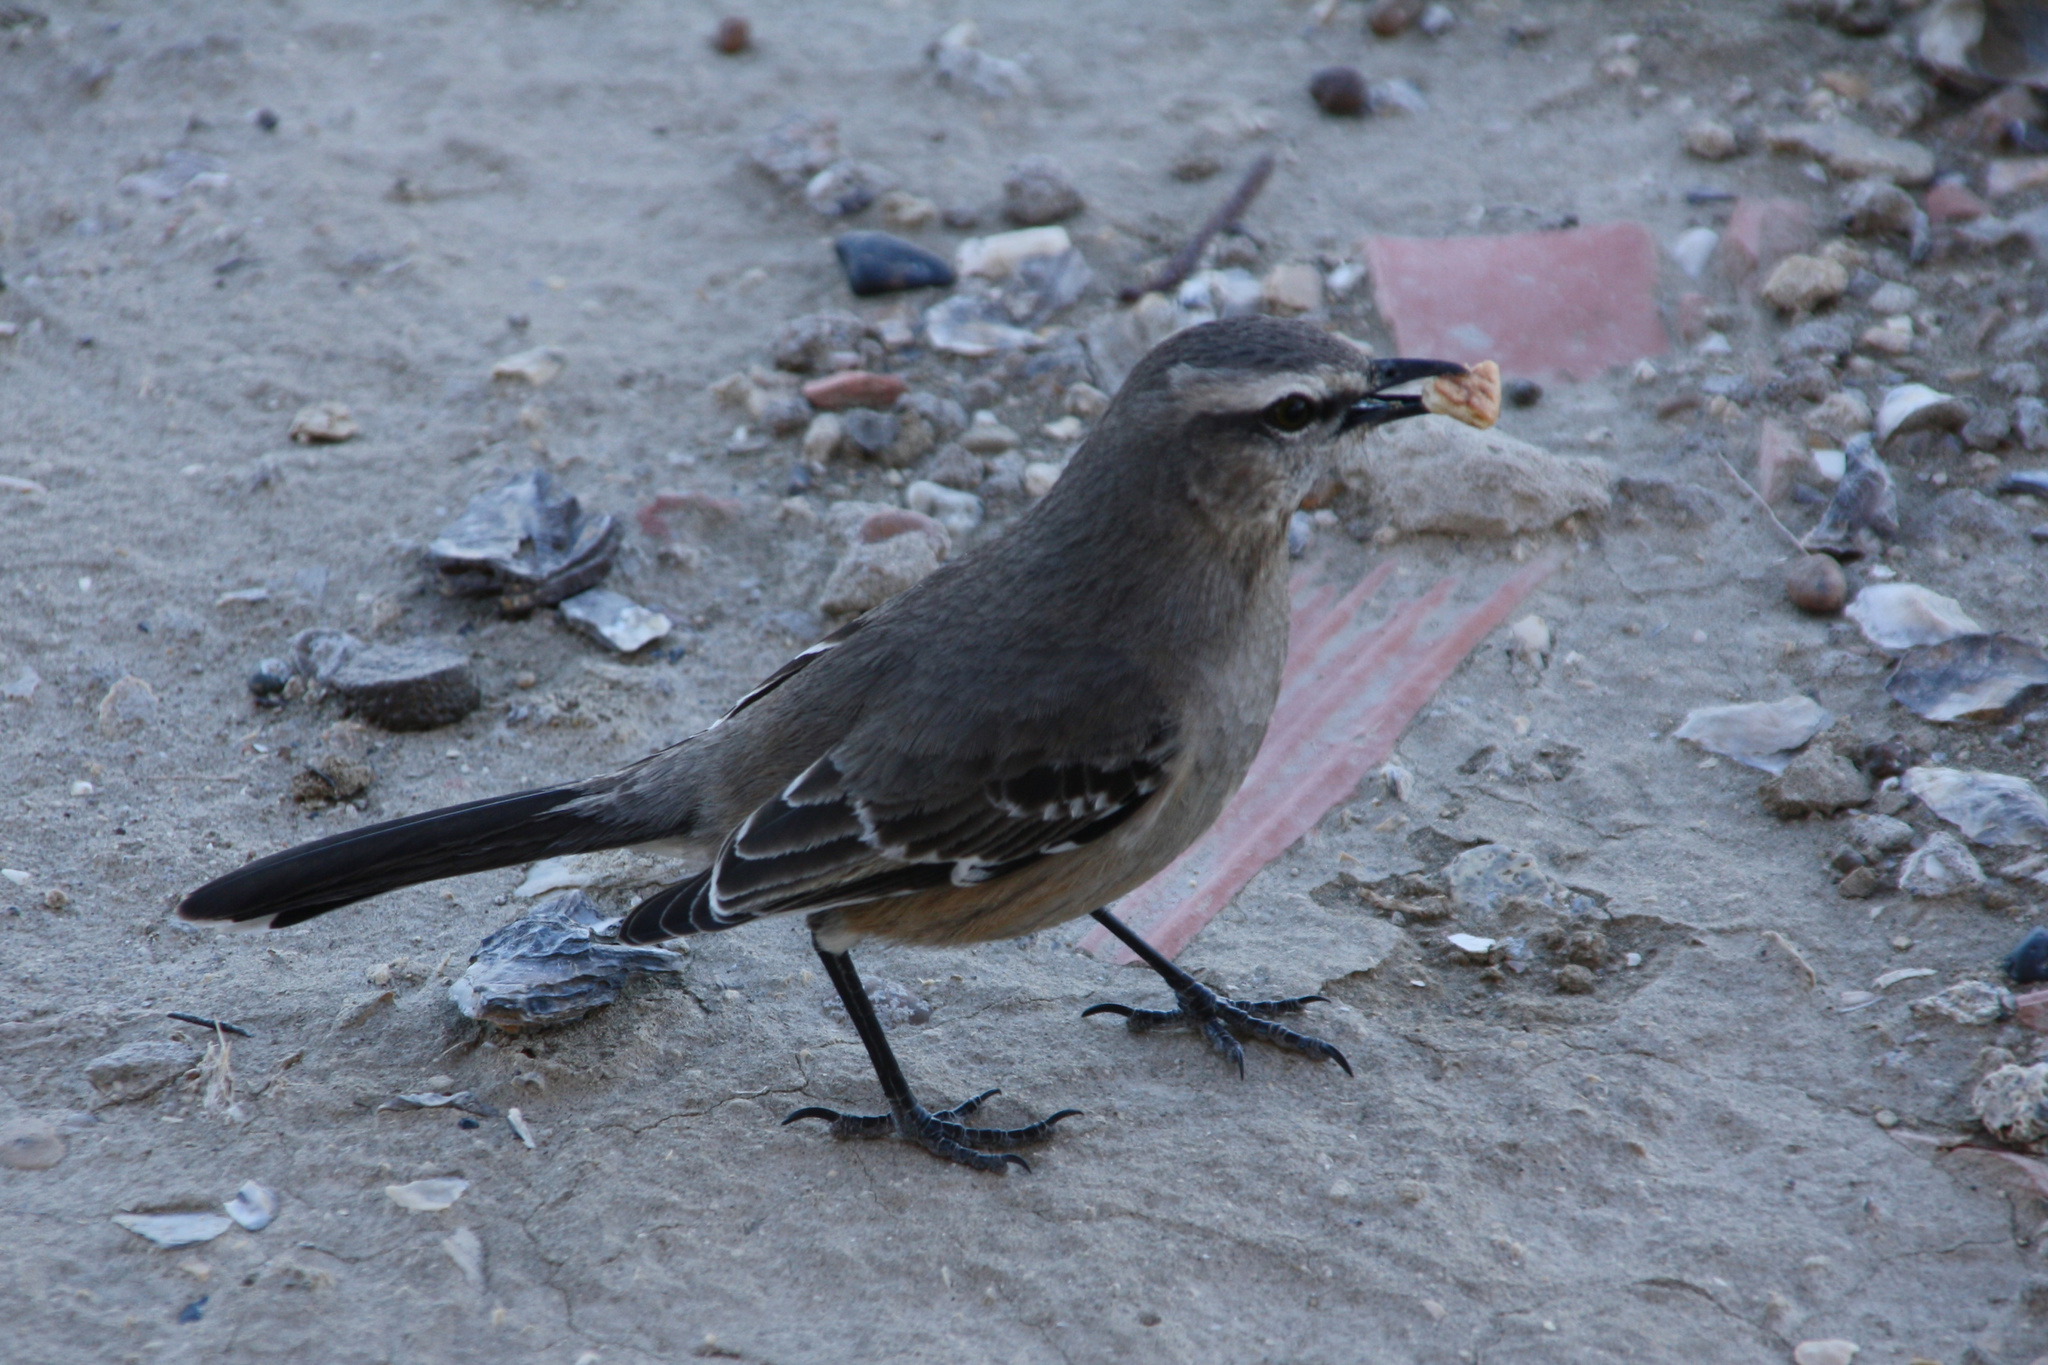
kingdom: Animalia
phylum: Chordata
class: Aves
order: Passeriformes
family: Mimidae
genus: Mimus
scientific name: Mimus patagonicus
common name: Patagonian mockingbird
